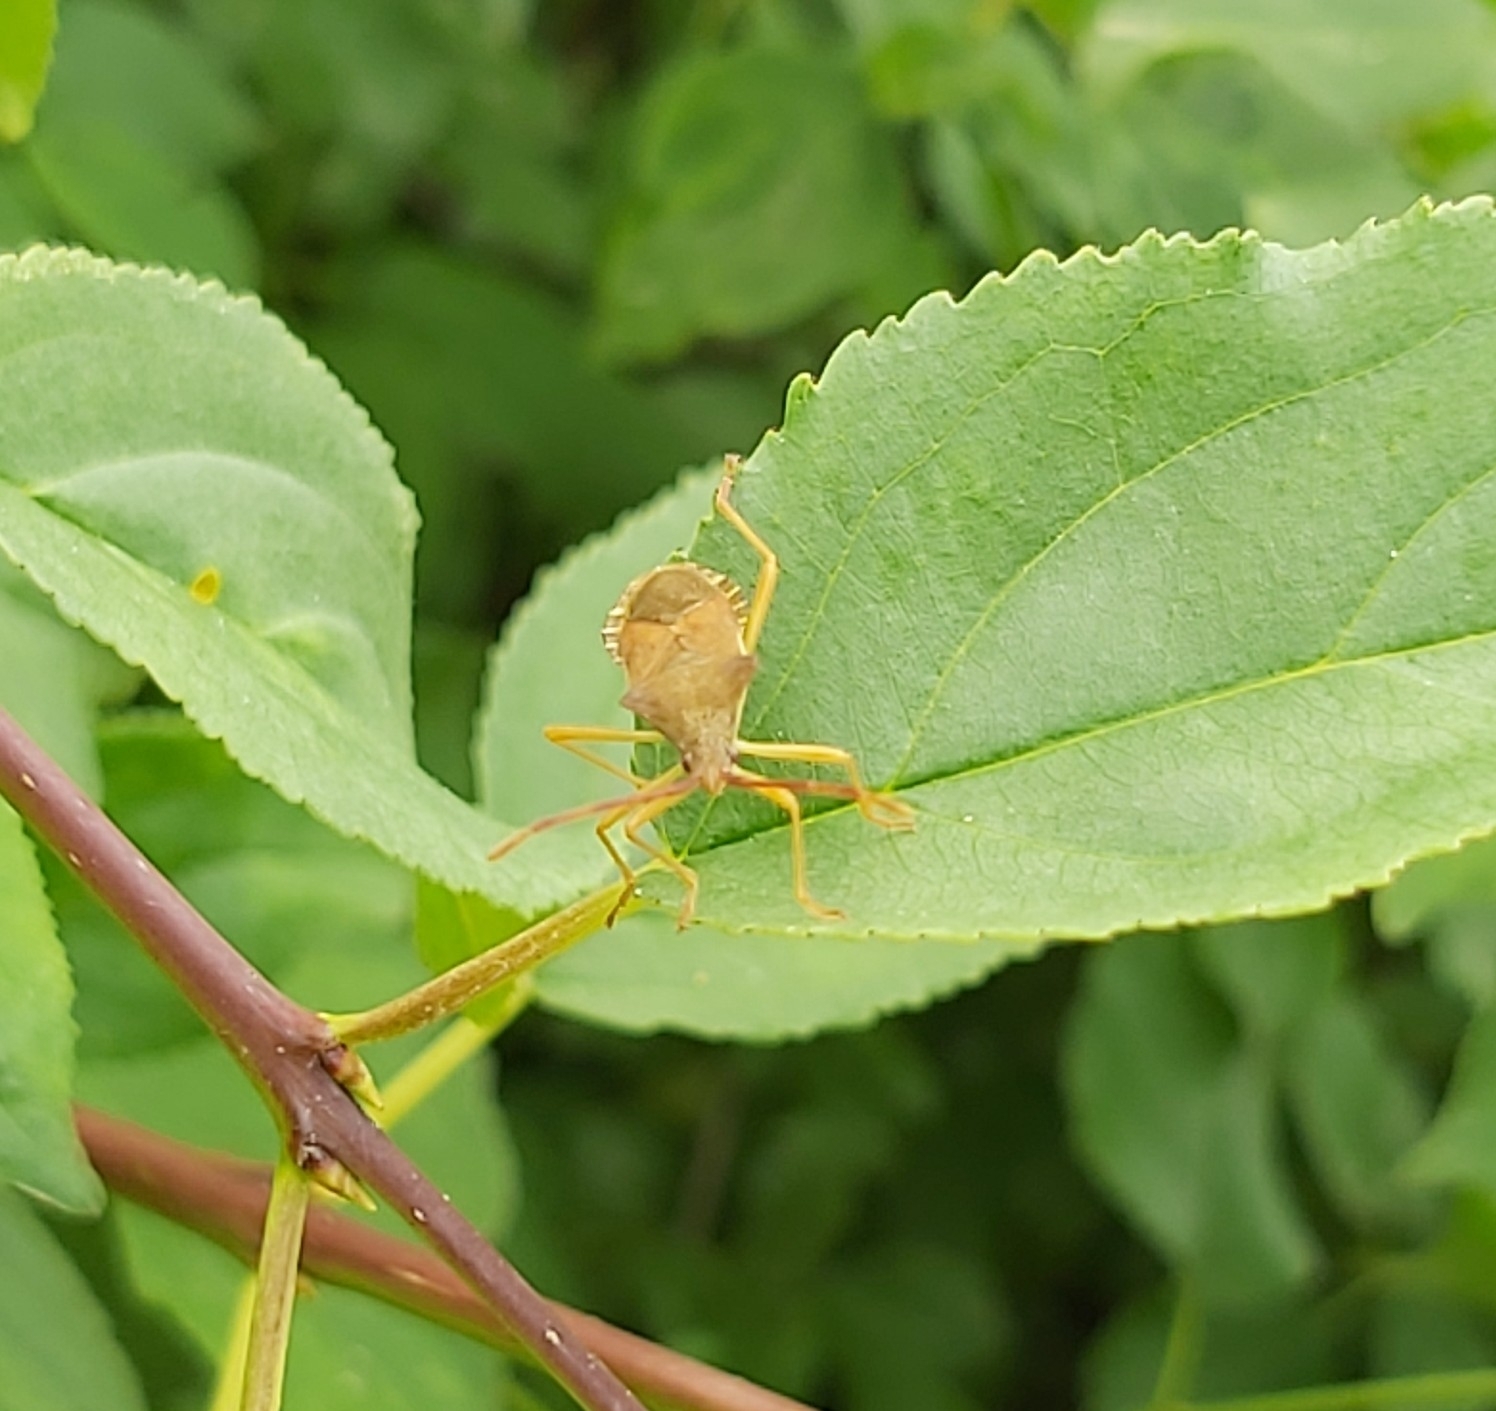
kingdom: Animalia
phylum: Arthropoda
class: Insecta
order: Hemiptera
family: Coreidae
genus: Gonocerus
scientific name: Gonocerus acuteangulatus
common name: Box bug
